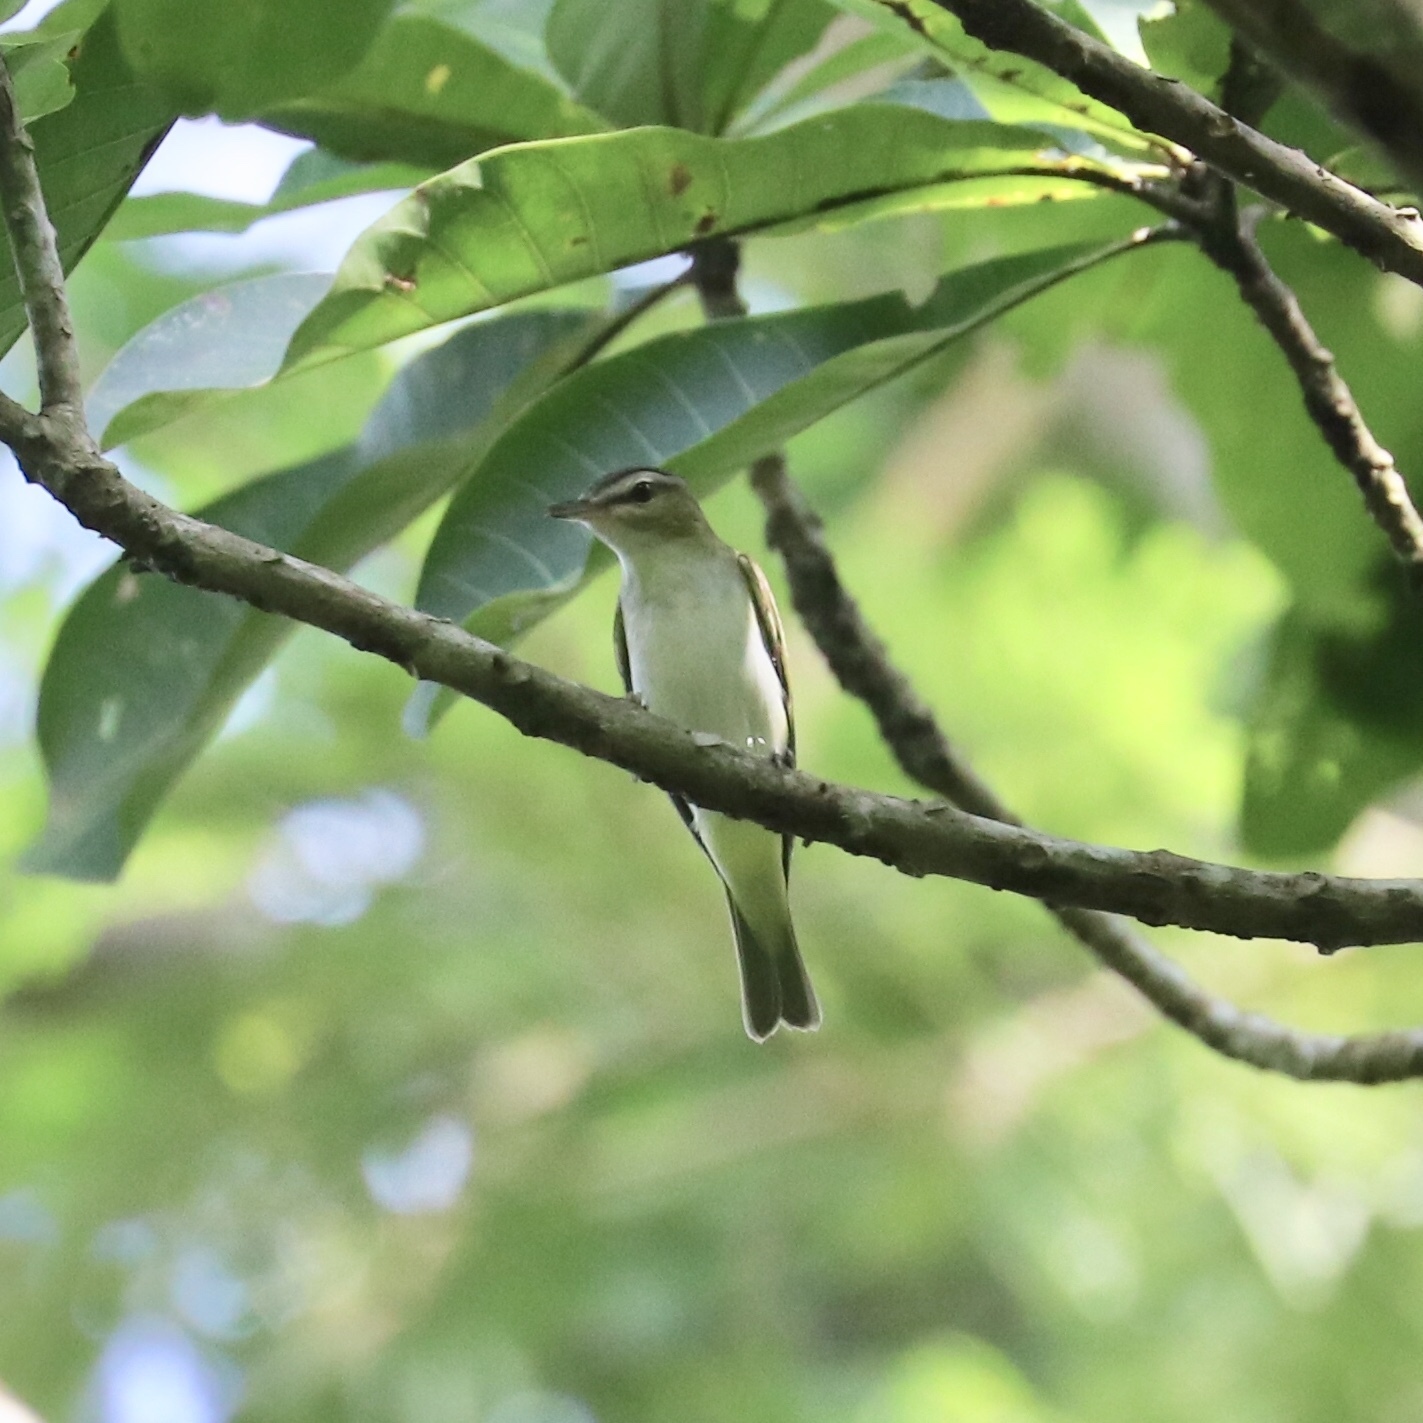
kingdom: Animalia
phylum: Chordata
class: Aves
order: Passeriformes
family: Vireonidae
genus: Vireo
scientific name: Vireo olivaceus
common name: Red-eyed vireo
